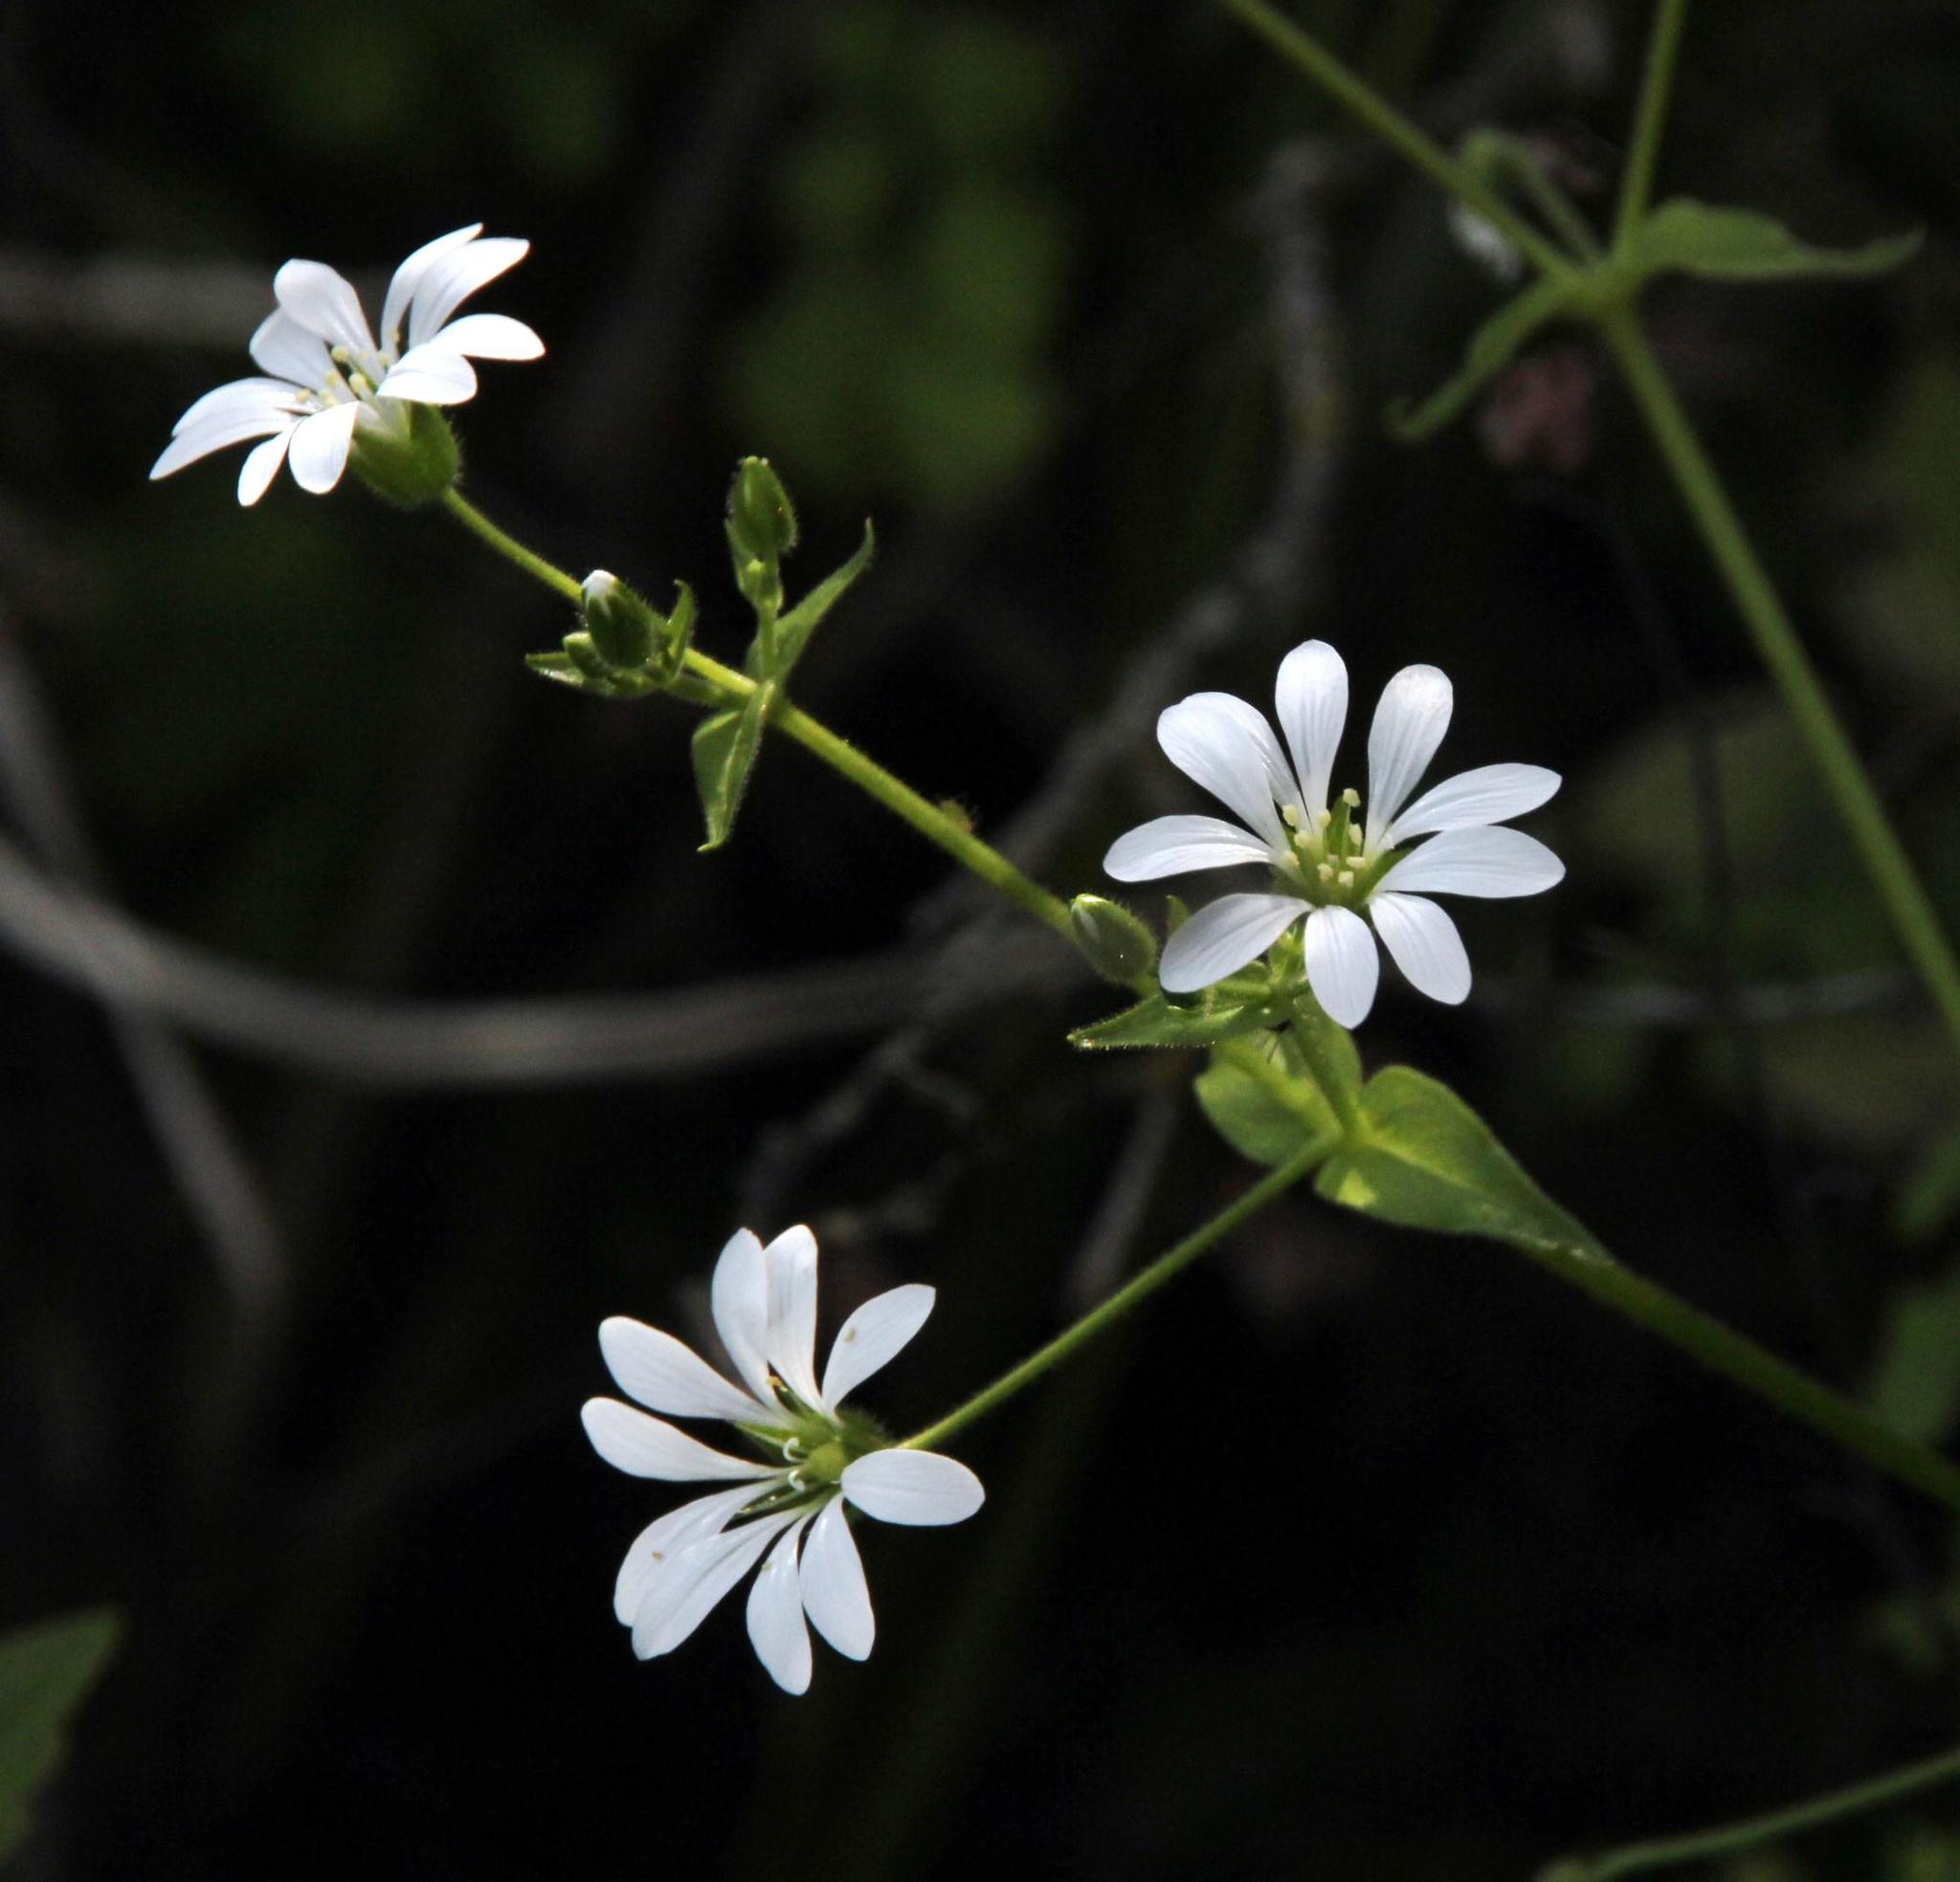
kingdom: Plantae
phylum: Tracheophyta
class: Magnoliopsida
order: Caryophyllales
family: Caryophyllaceae
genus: Stellaria
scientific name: Stellaria chilensis
